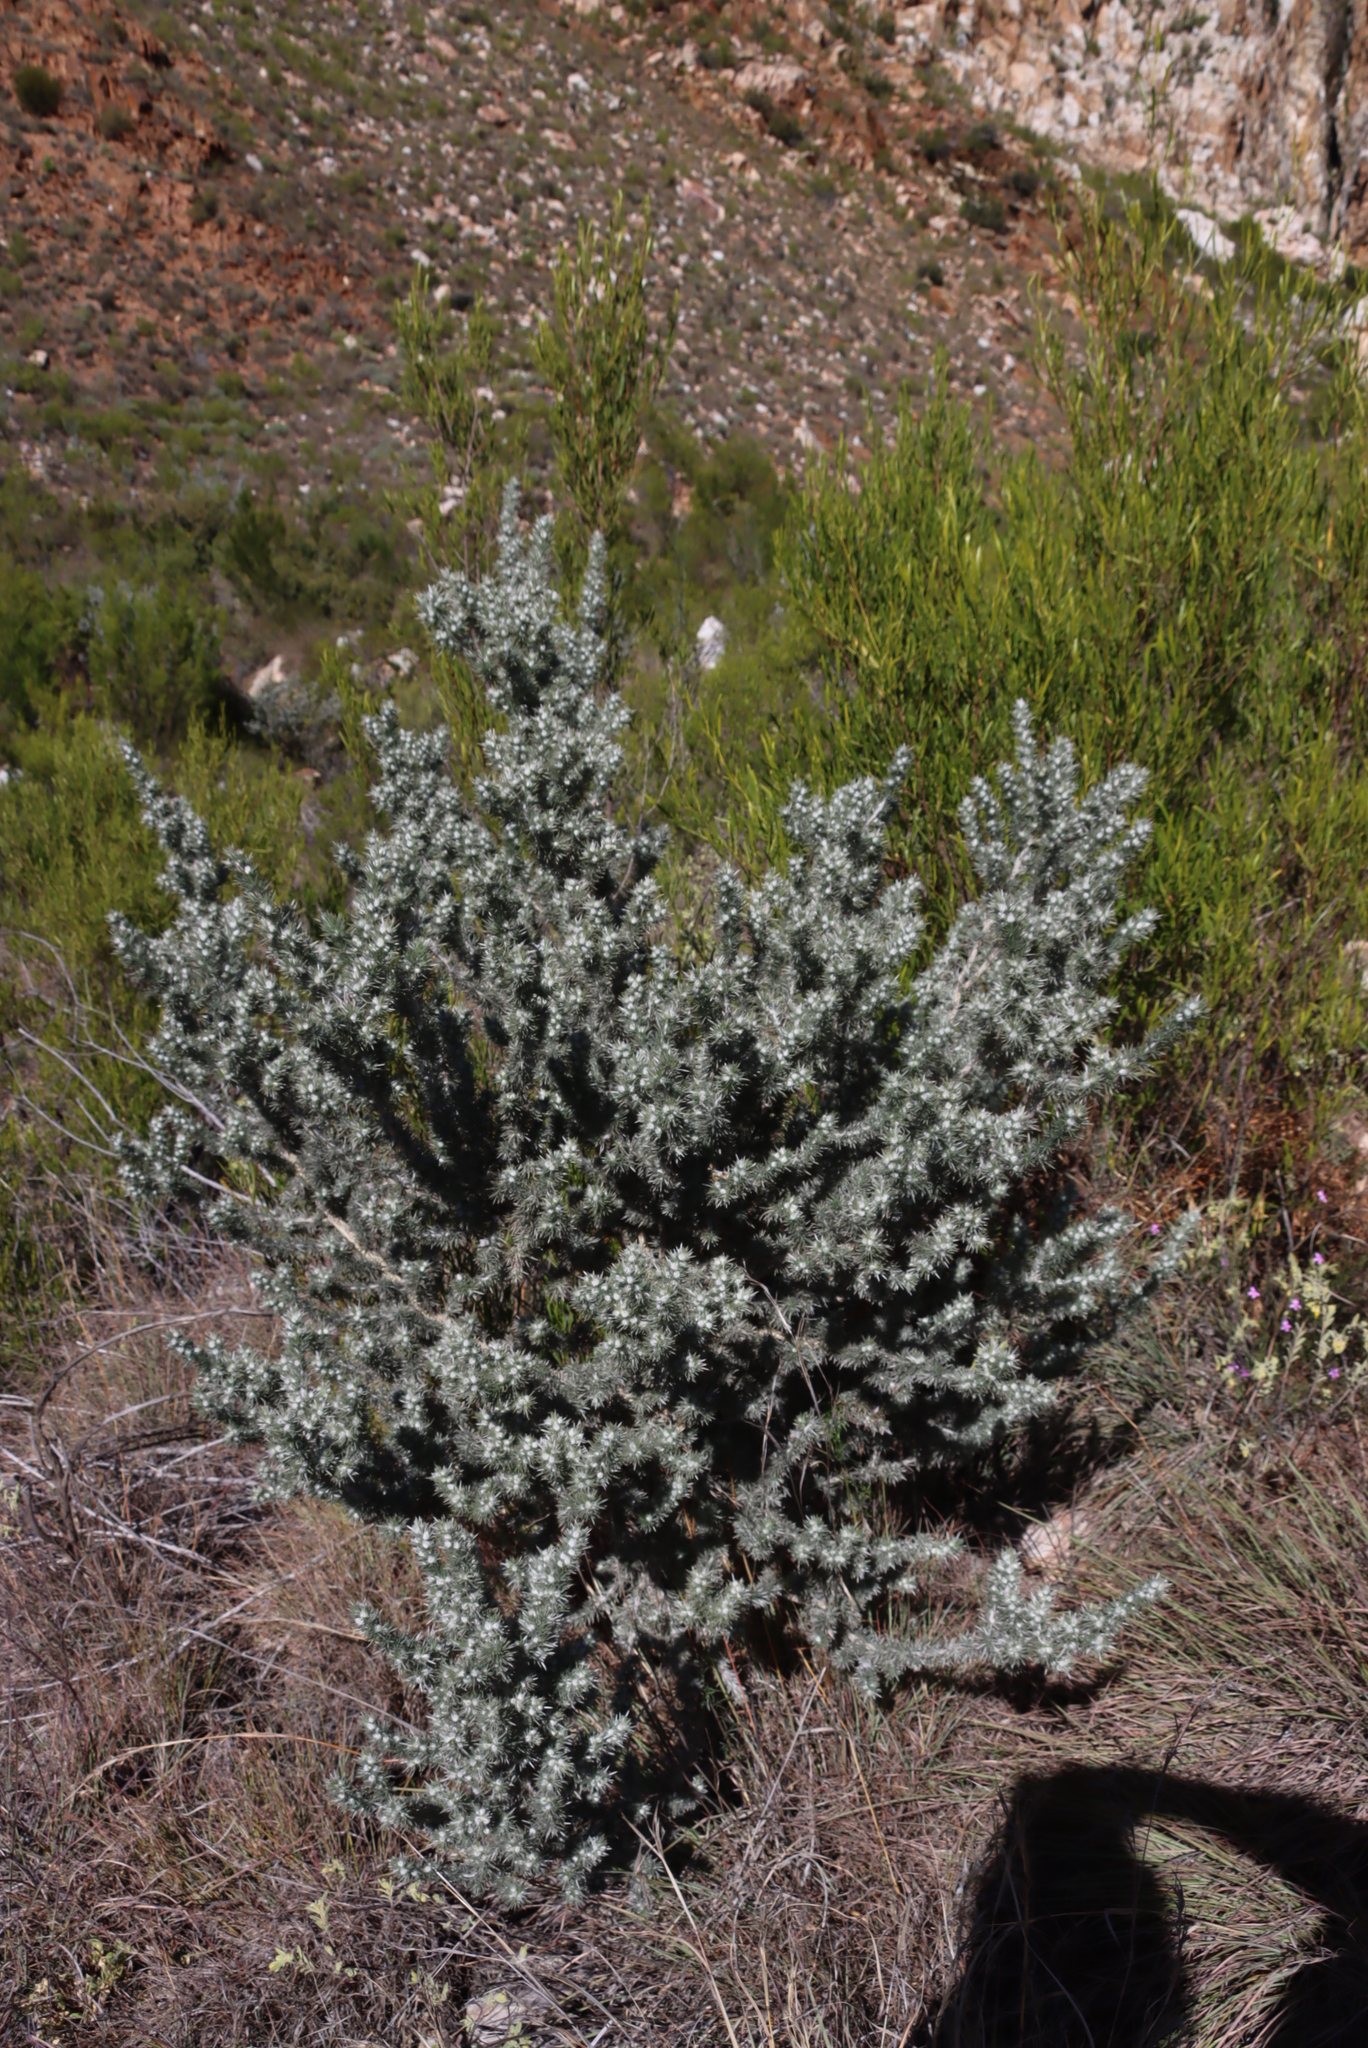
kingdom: Plantae
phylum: Tracheophyta
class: Magnoliopsida
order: Fabales
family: Fabaceae
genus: Aspalathus
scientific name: Aspalathus hystrix
